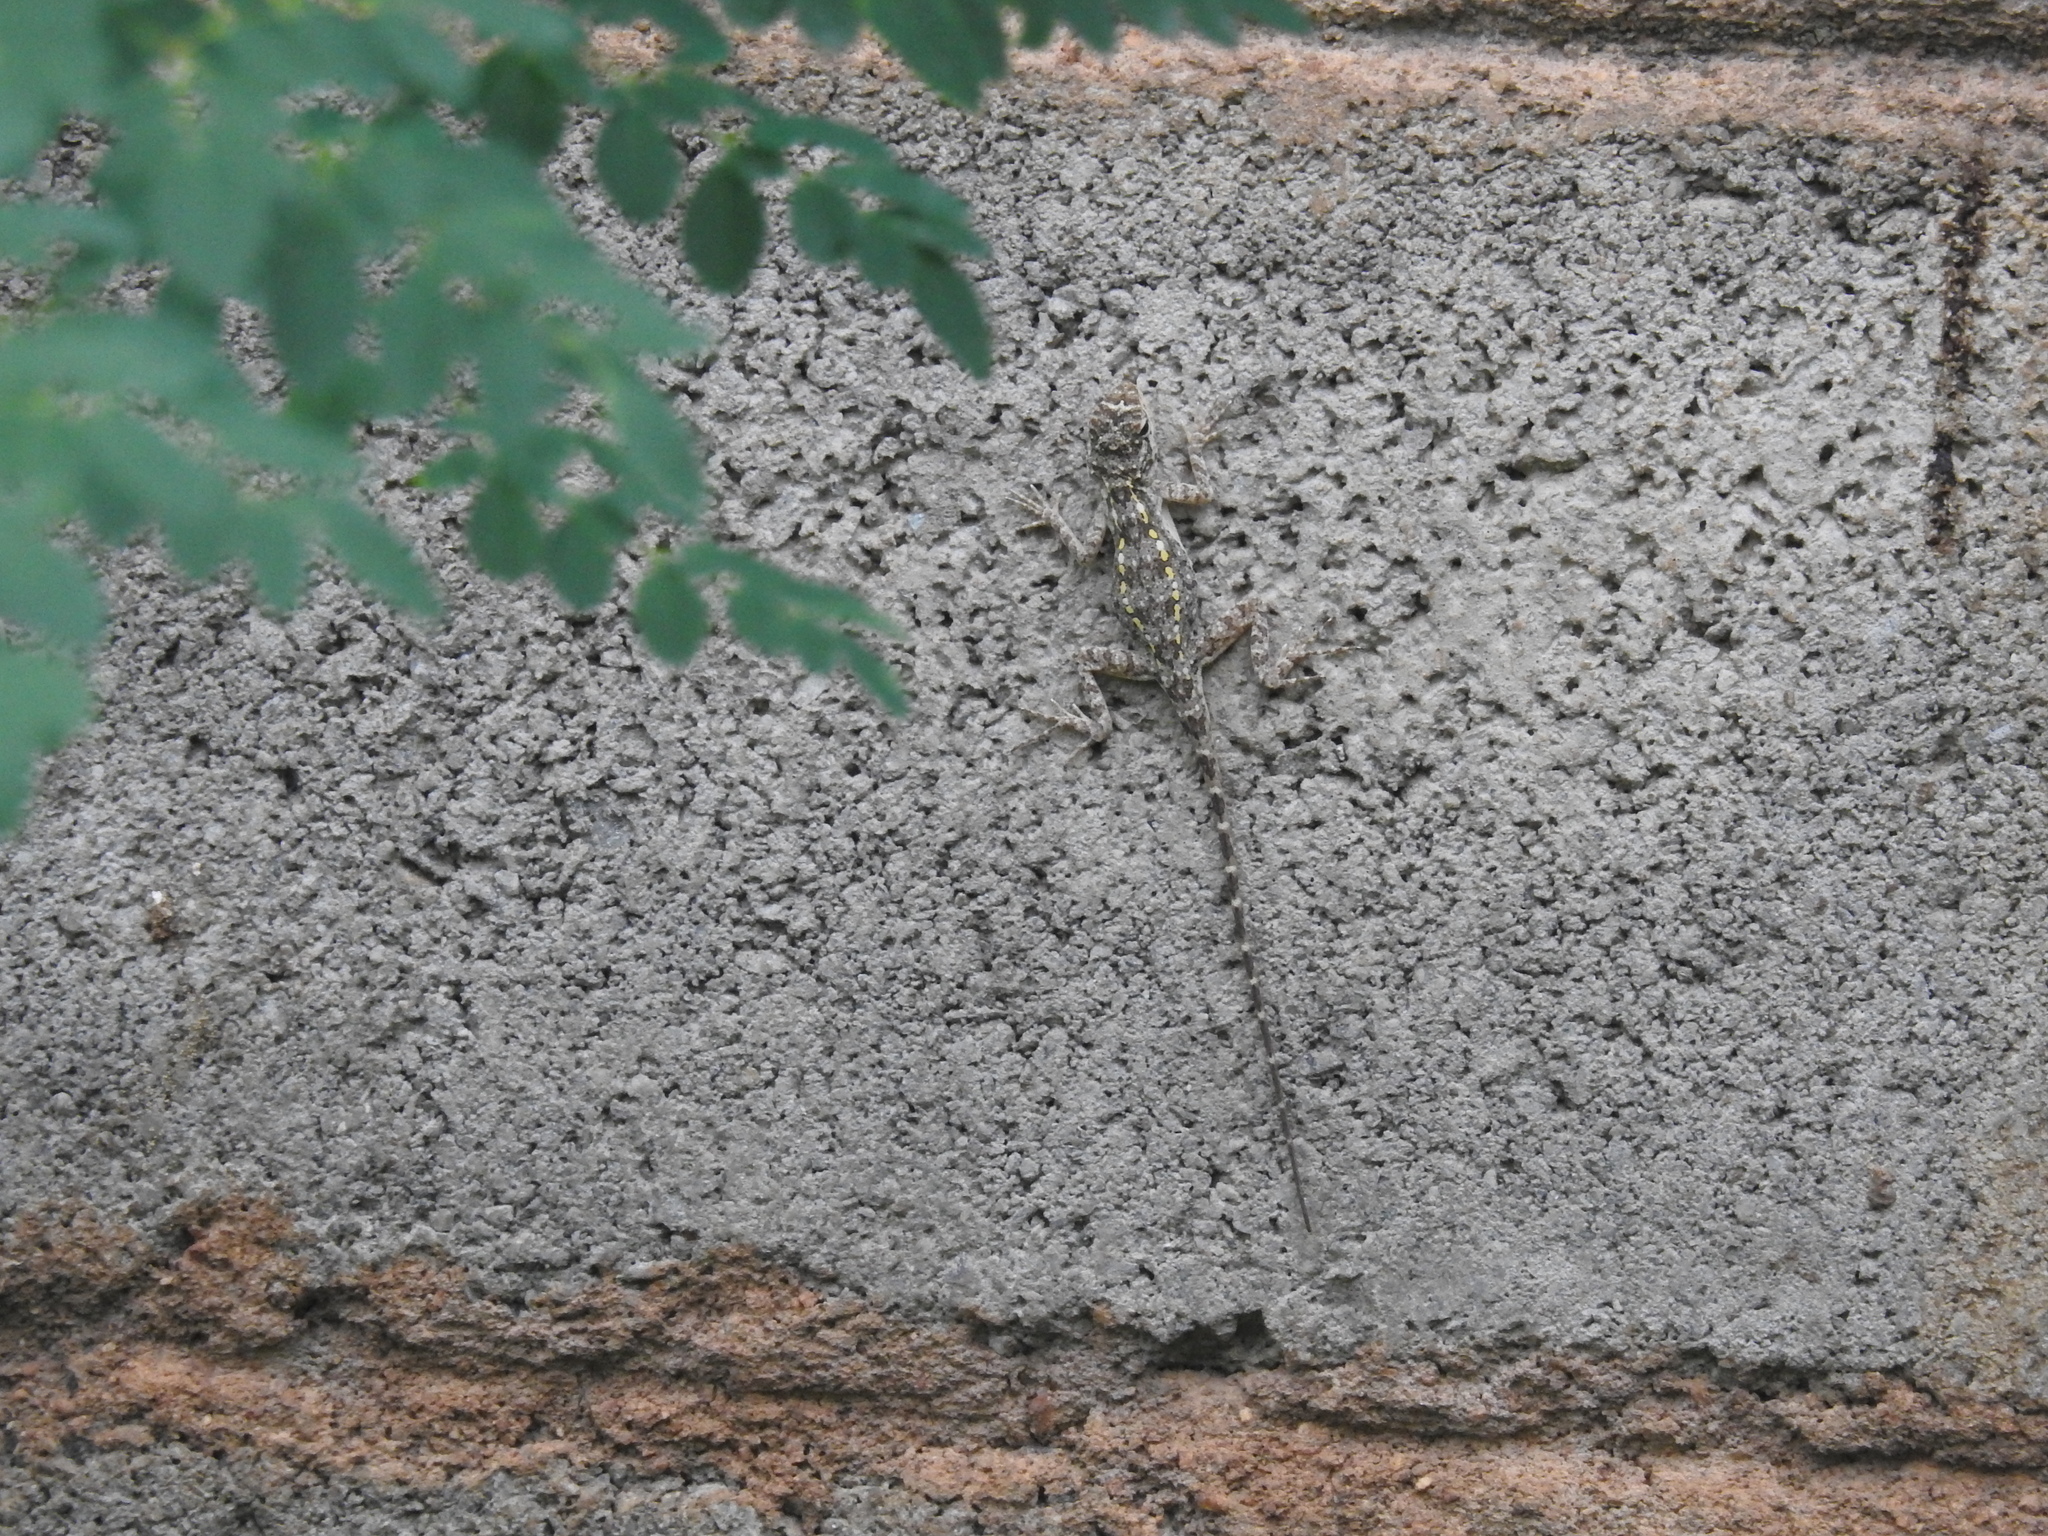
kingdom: Animalia
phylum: Chordata
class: Squamata
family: Agamidae
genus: Psammophilus
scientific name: Psammophilus dorsalis
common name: South indian rock agama
